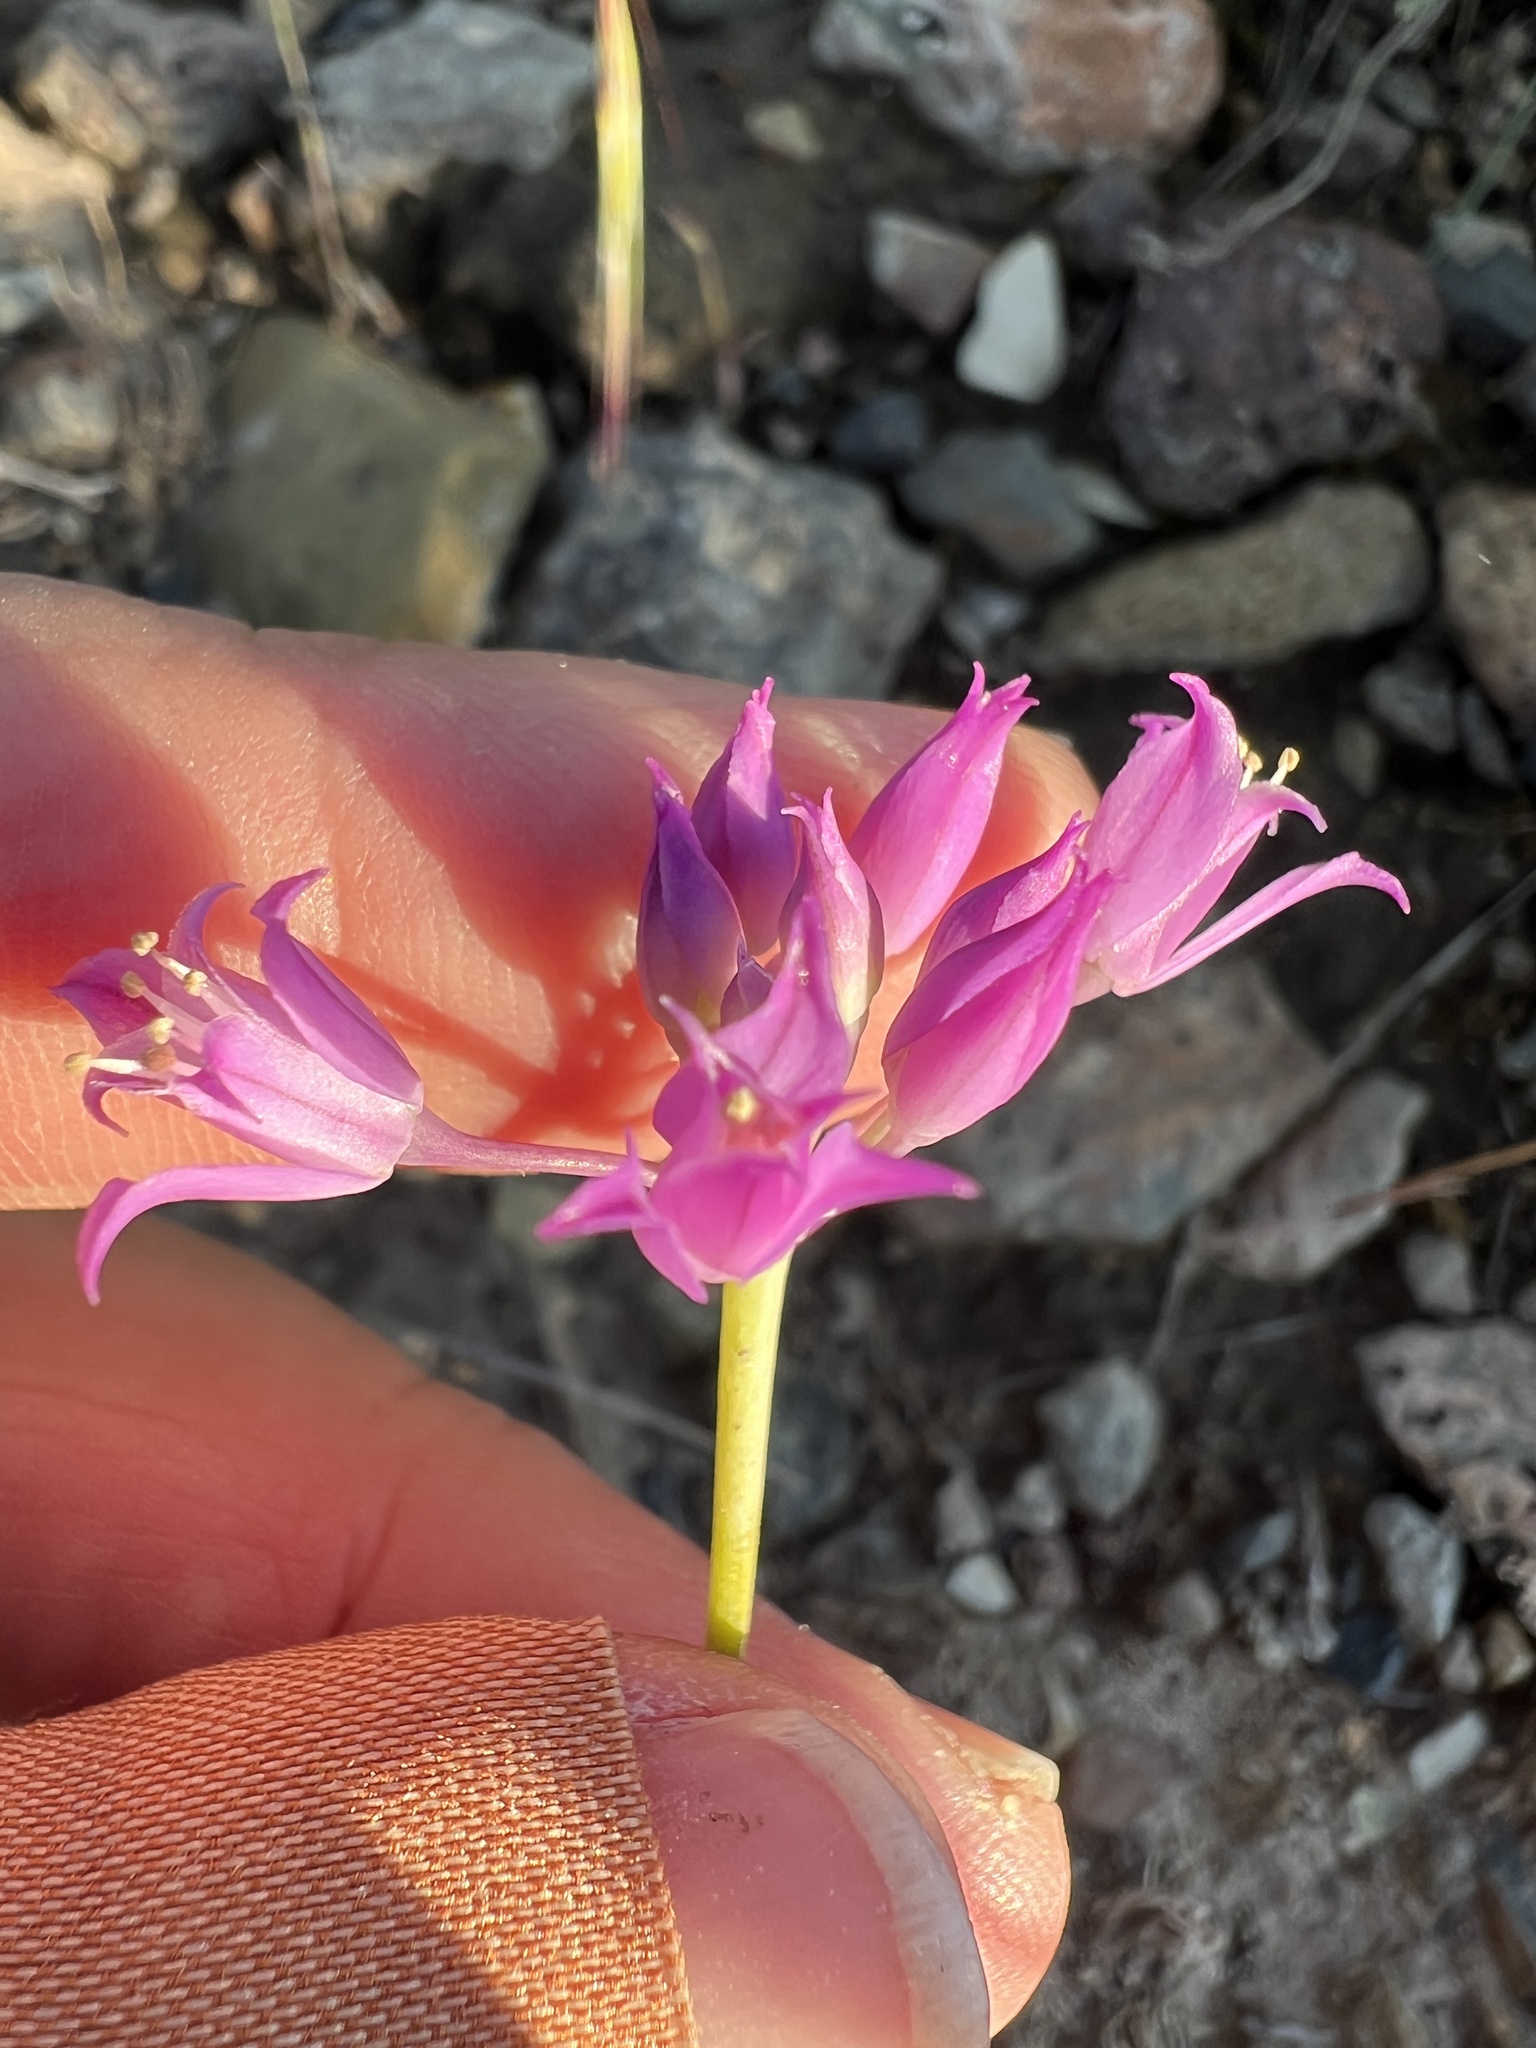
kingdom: Plantae
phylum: Tracheophyta
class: Liliopsida
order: Asparagales
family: Amaryllidaceae
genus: Allium
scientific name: Allium acuminatum
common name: Hooker's onion
